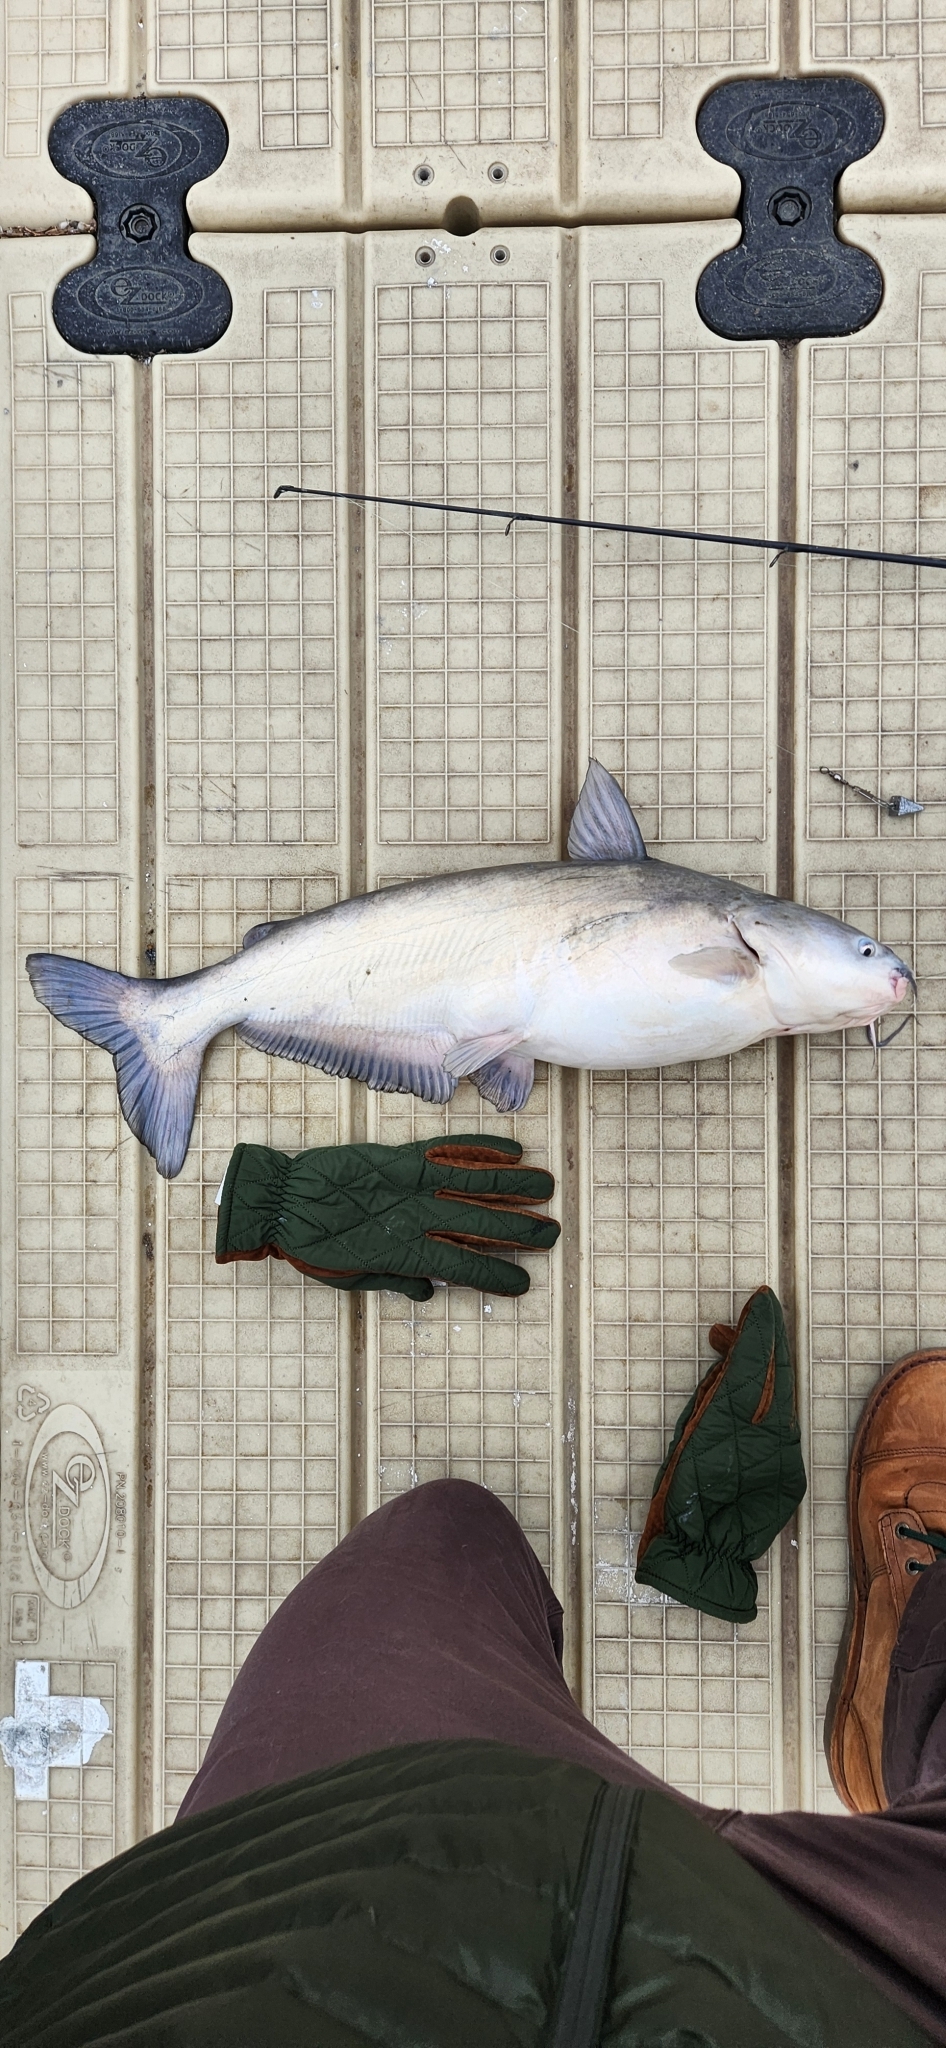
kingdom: Animalia
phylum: Chordata
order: Siluriformes
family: Ictaluridae
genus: Ictalurus
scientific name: Ictalurus furcatus
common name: Blue catfish
